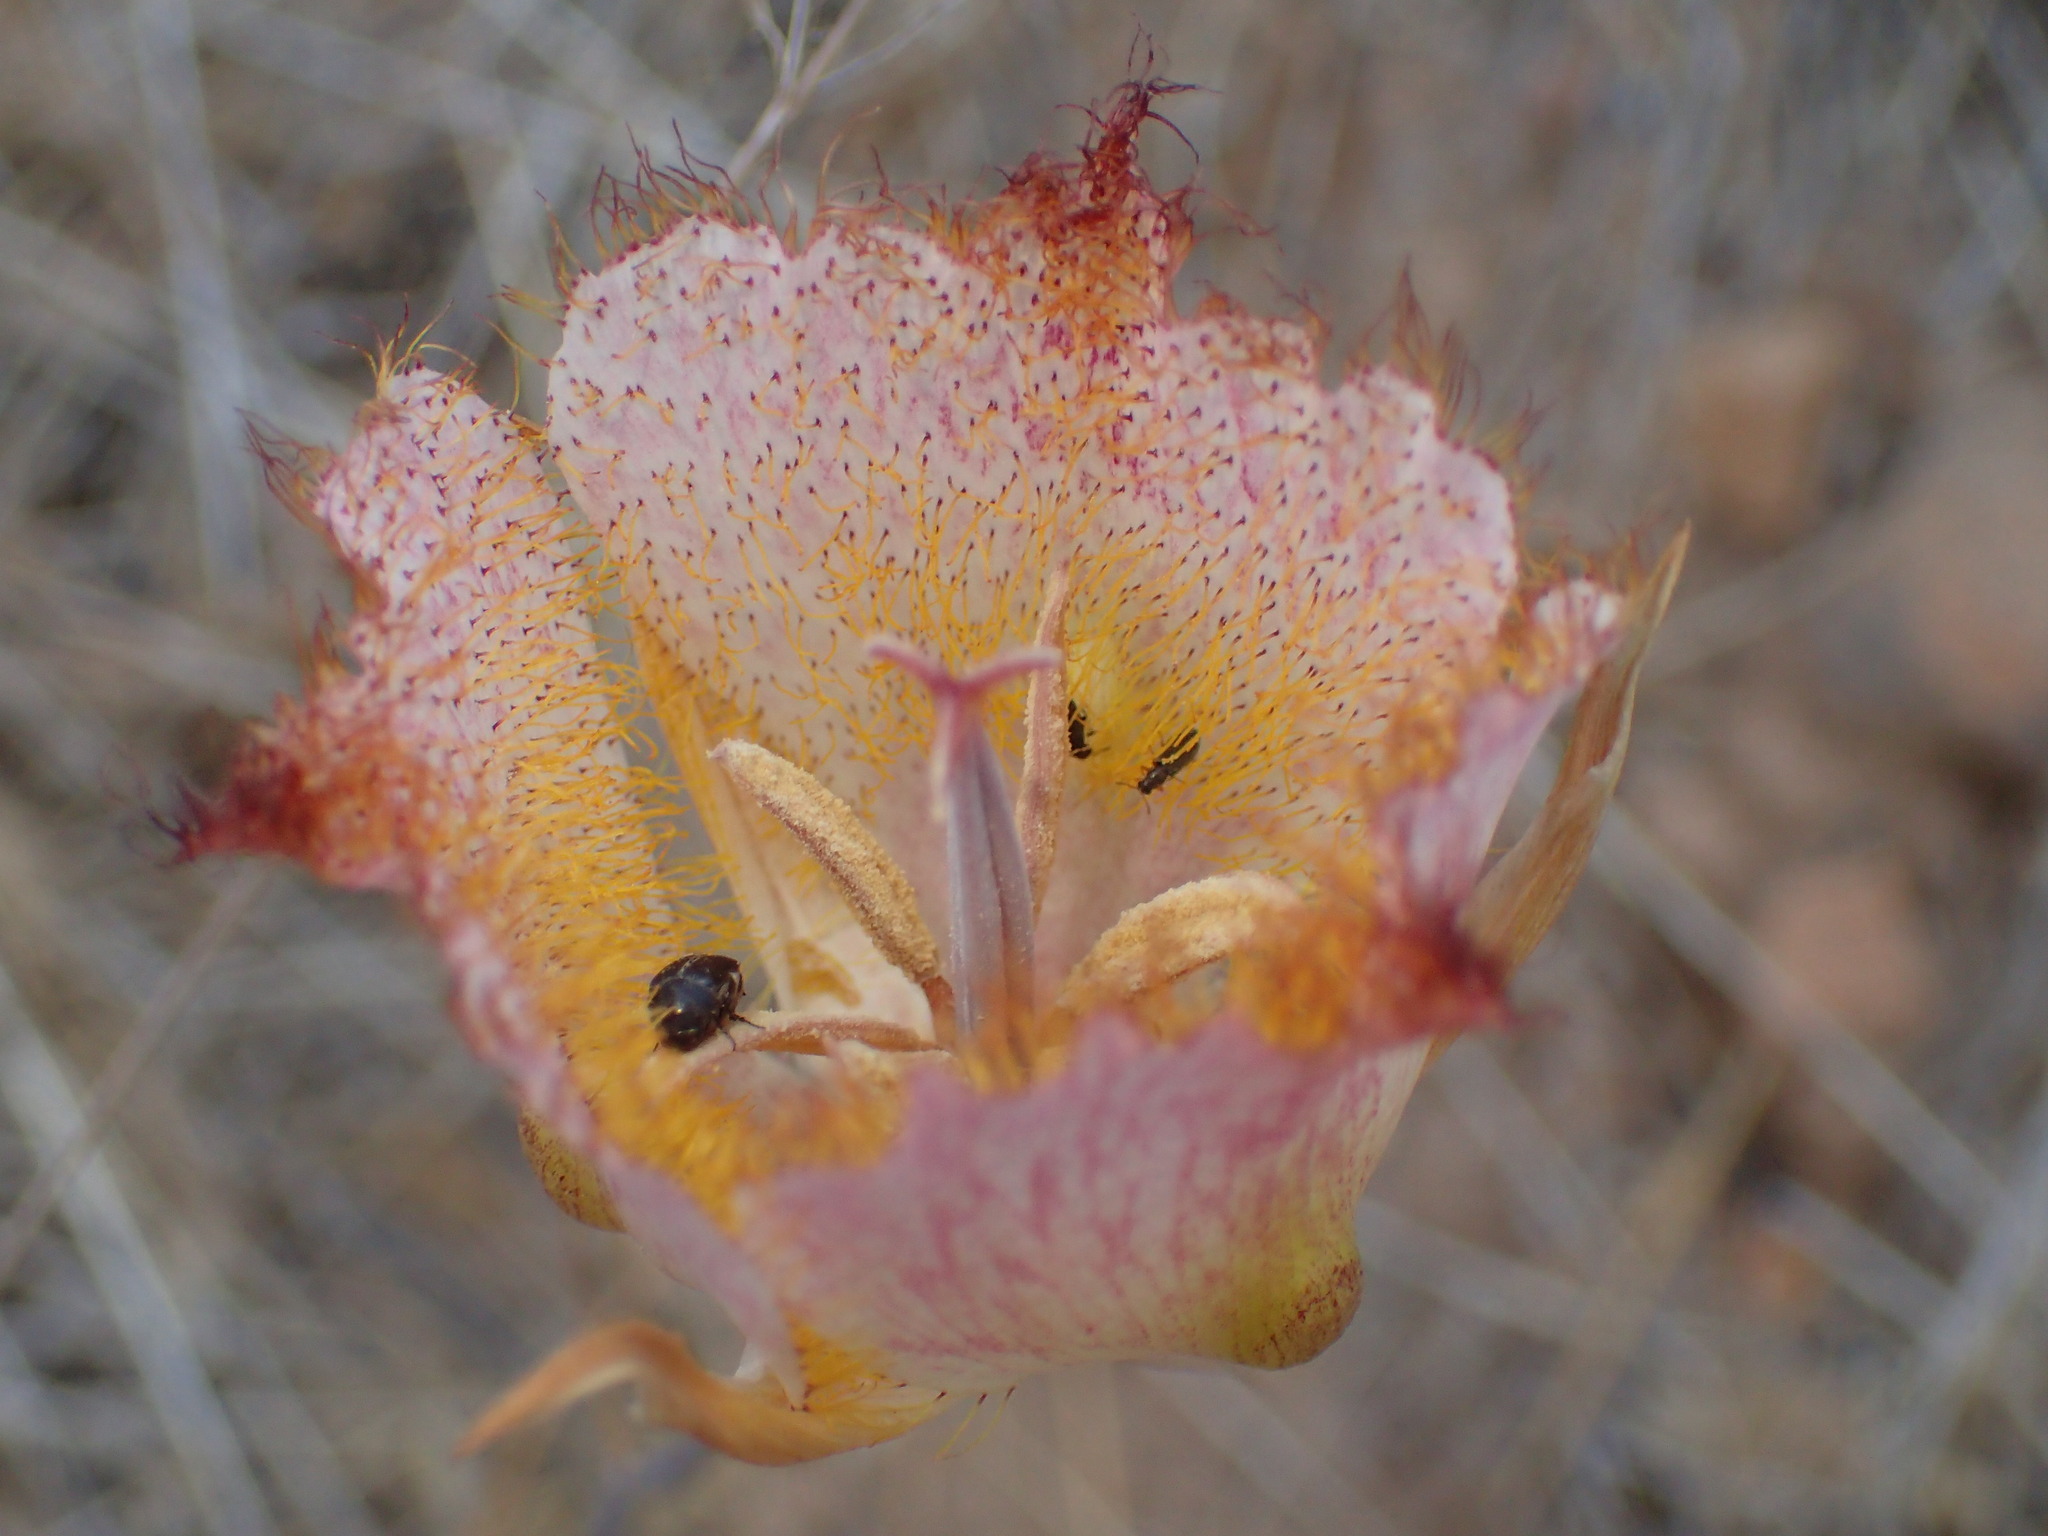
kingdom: Plantae
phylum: Tracheophyta
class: Liliopsida
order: Liliales
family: Liliaceae
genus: Calochortus
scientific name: Calochortus fimbriatus
